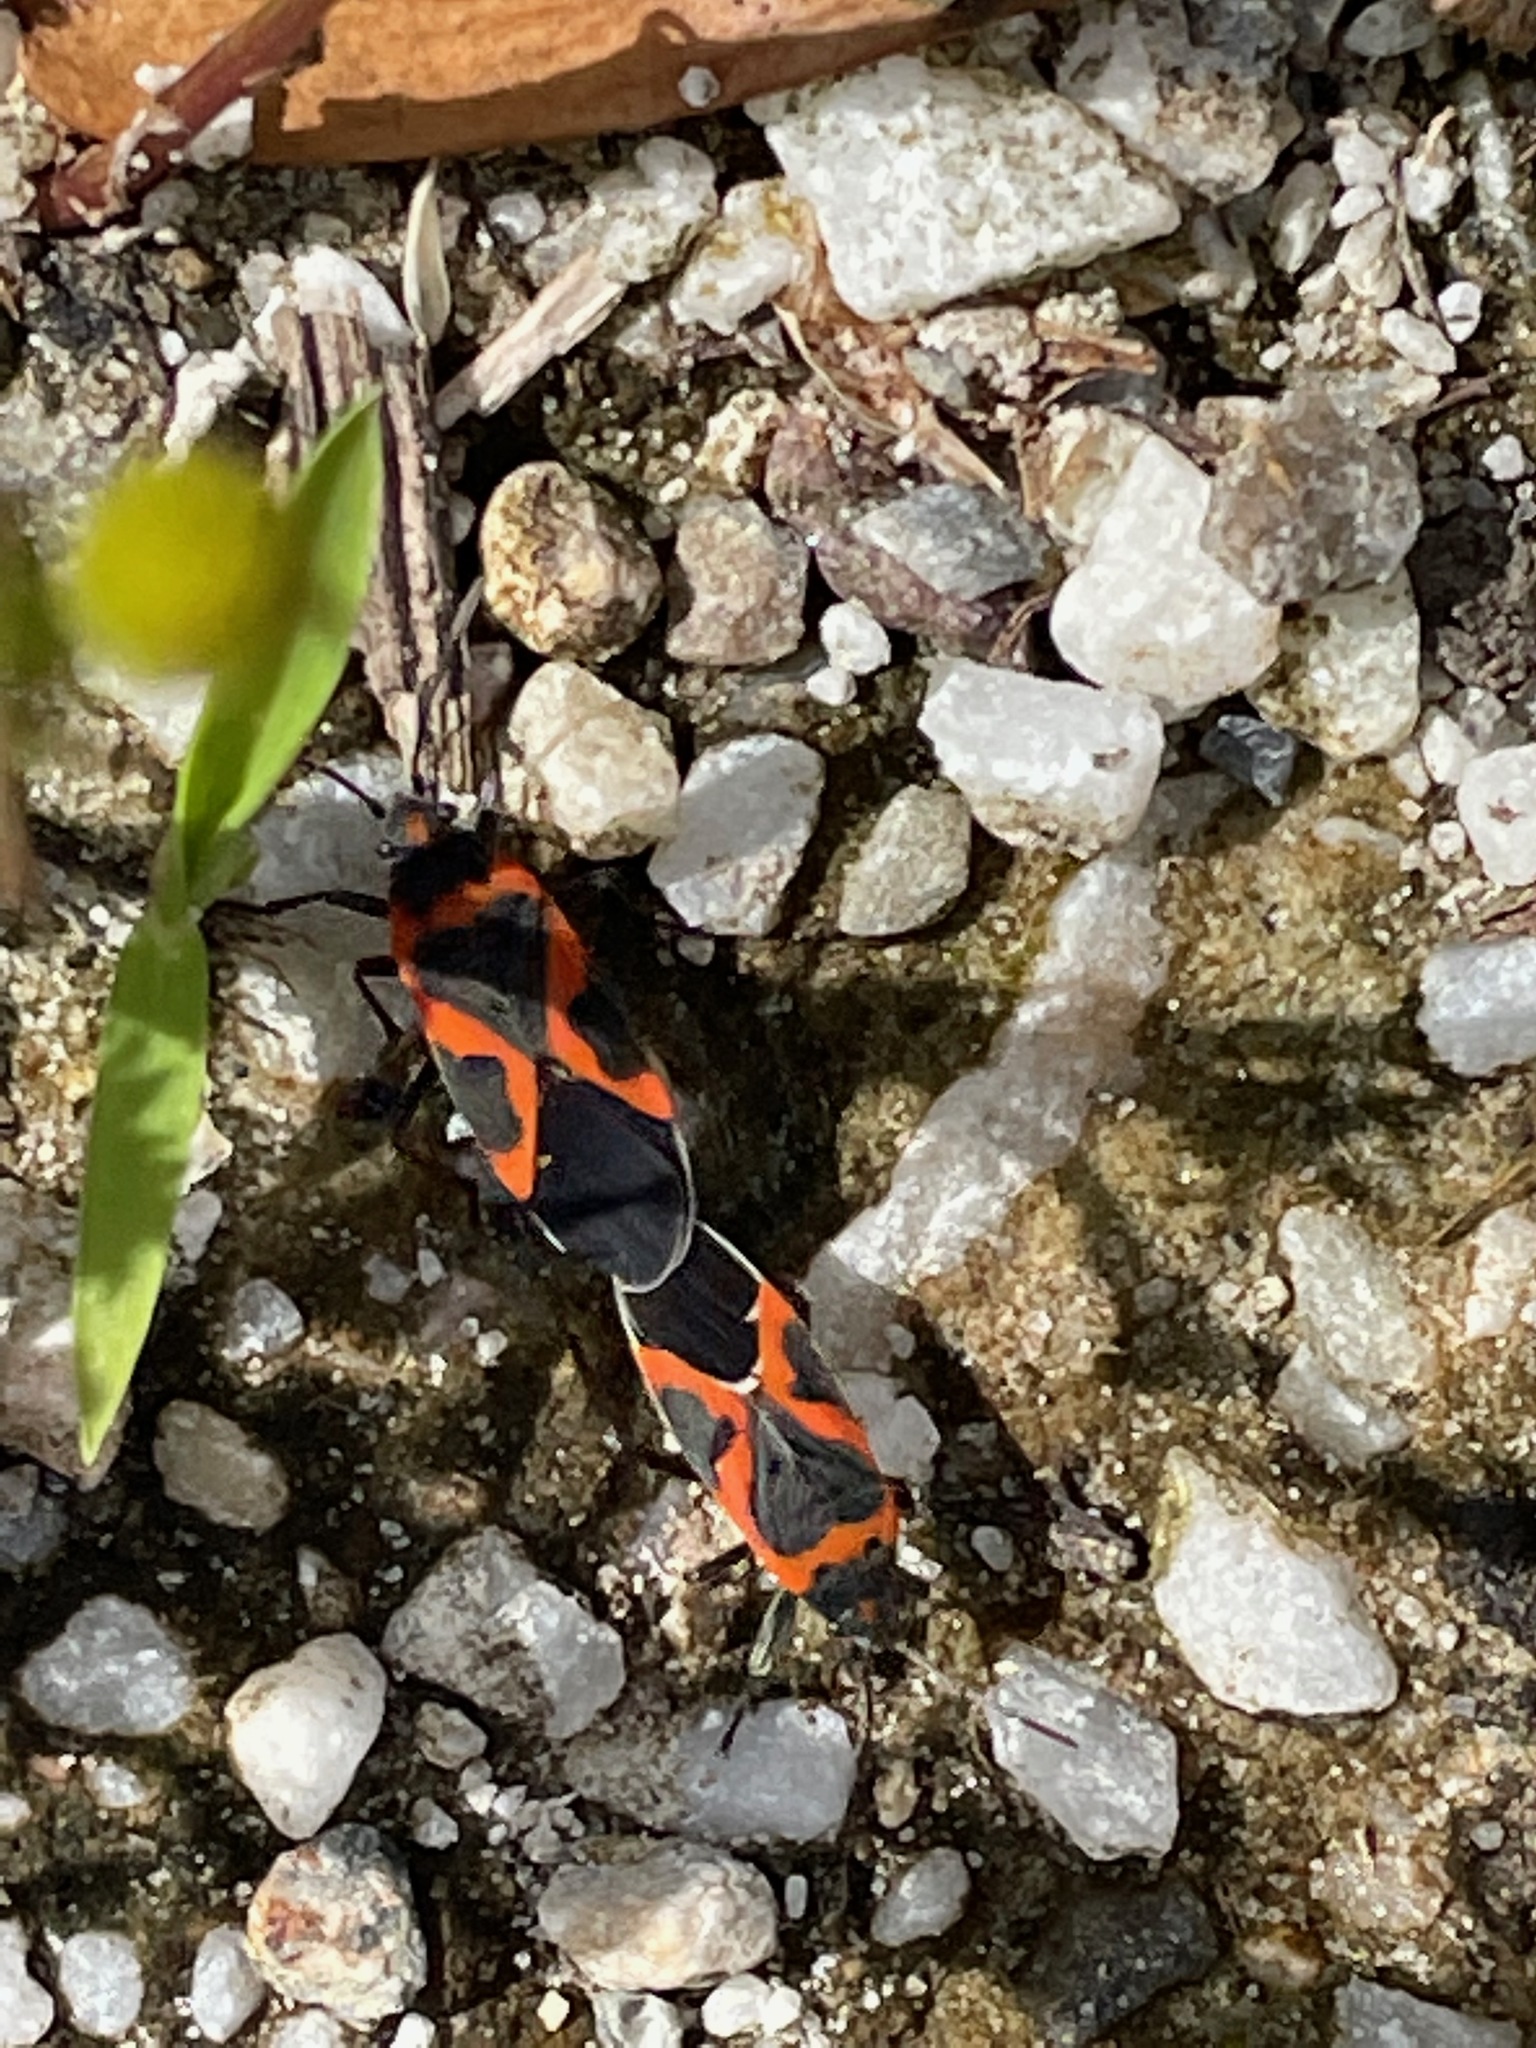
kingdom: Animalia
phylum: Arthropoda
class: Insecta
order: Hemiptera
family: Lygaeidae
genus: Lygaeus
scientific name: Lygaeus kalmii
